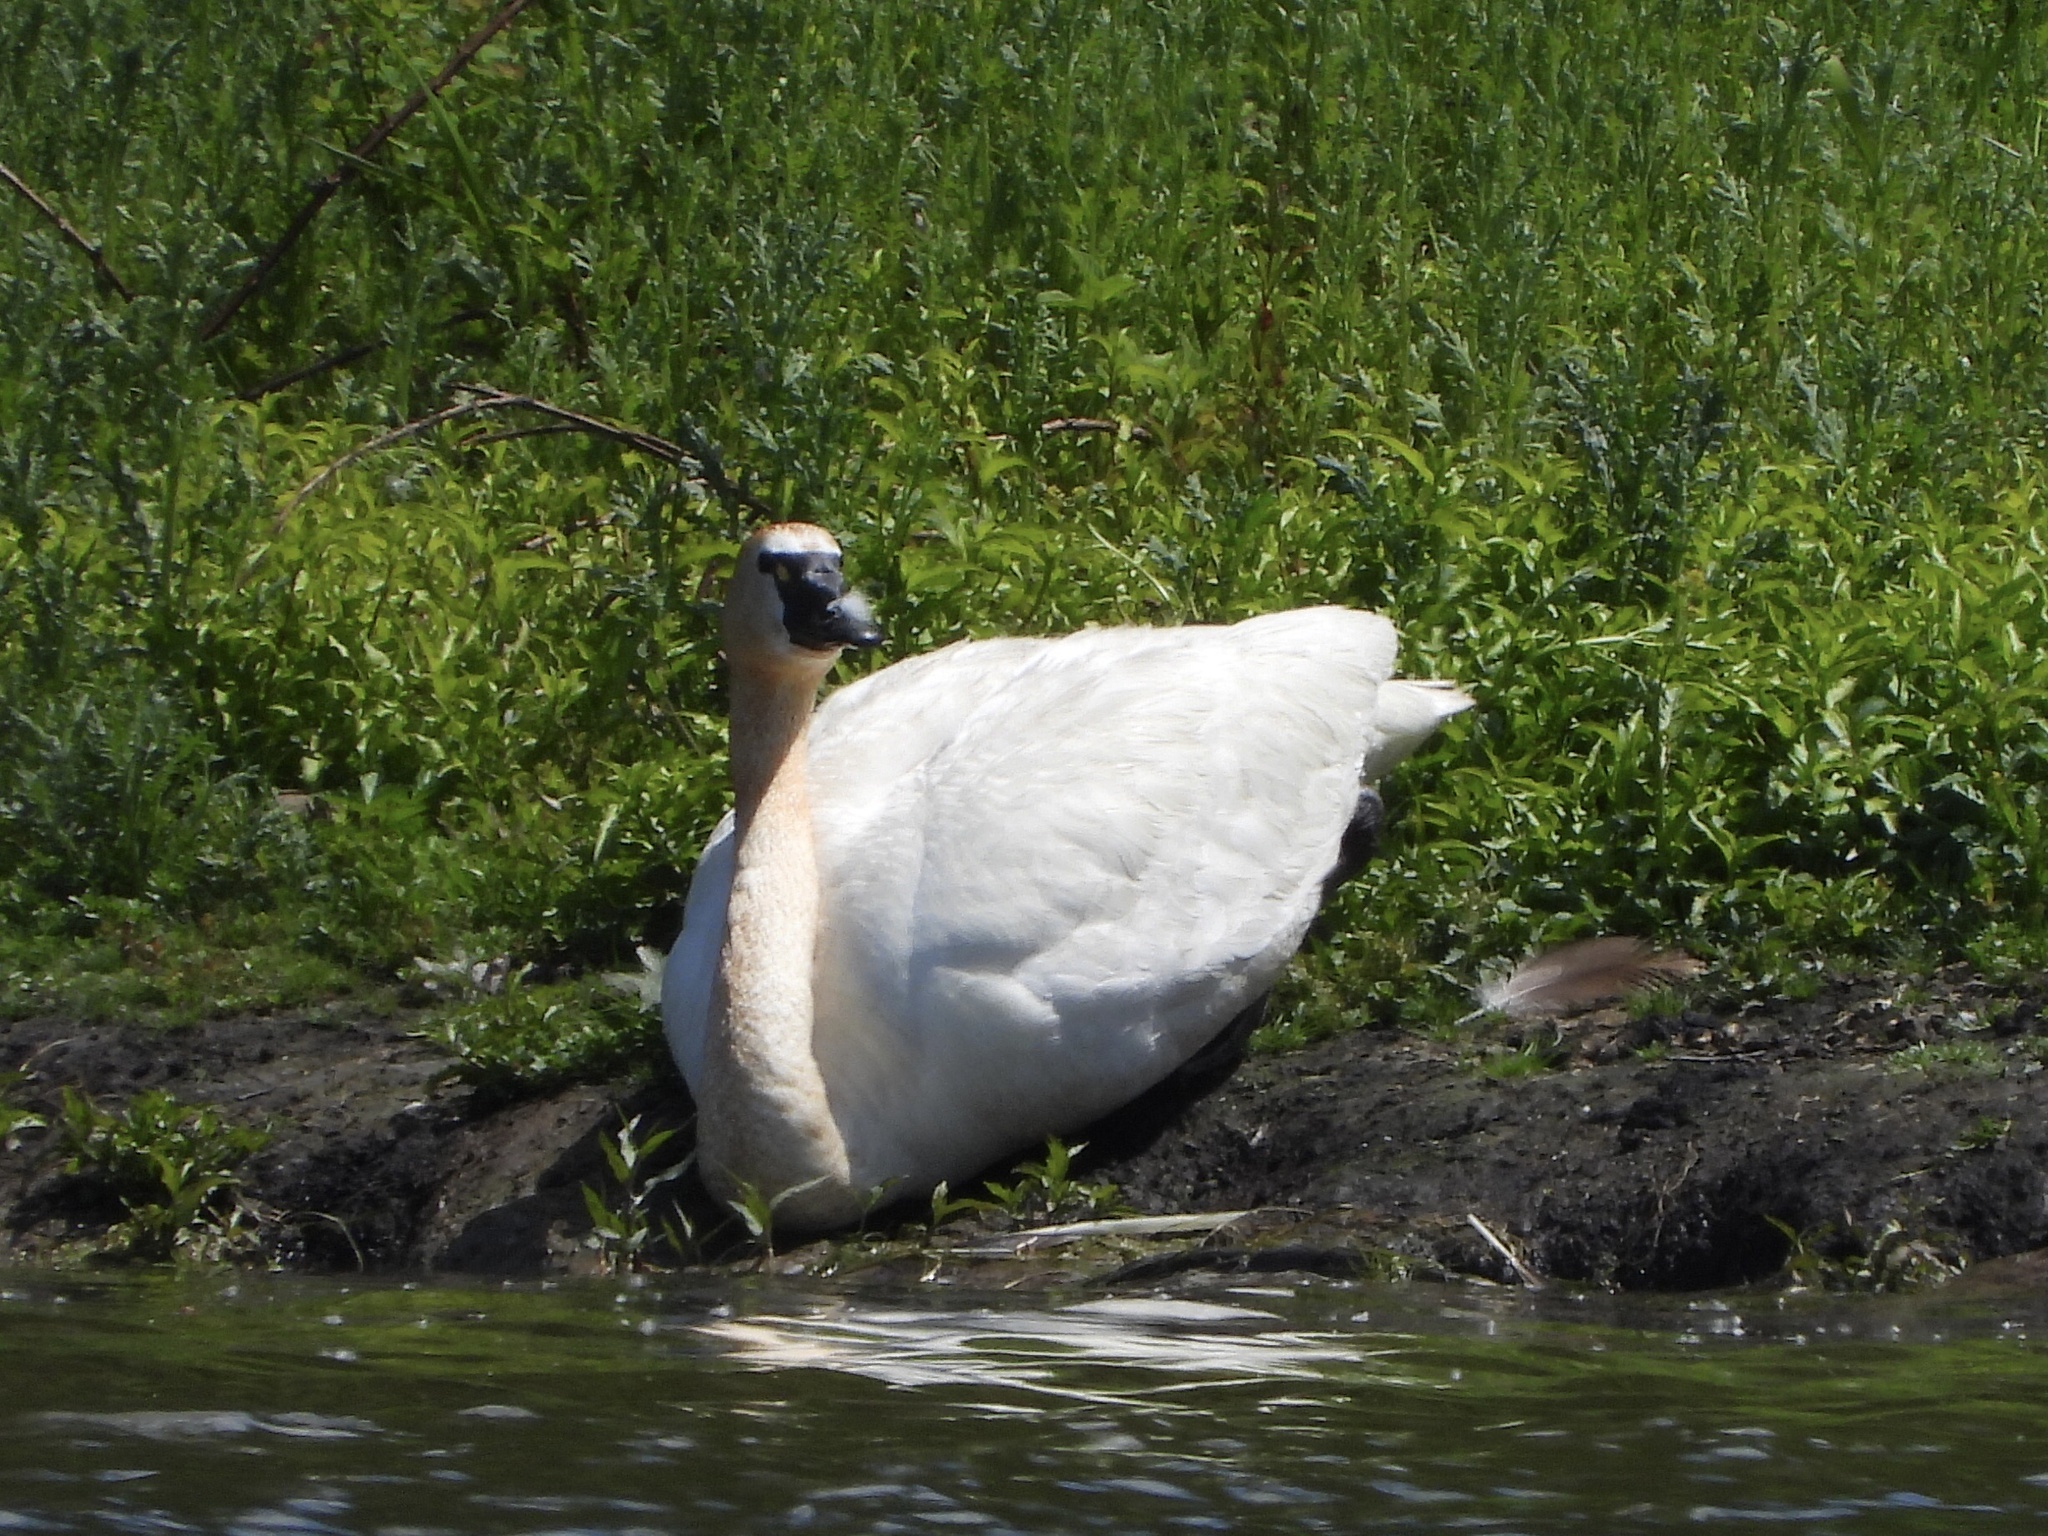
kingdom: Animalia
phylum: Chordata
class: Aves
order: Anseriformes
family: Anatidae
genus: Cygnus
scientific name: Cygnus columbianus
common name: Tundra swan
